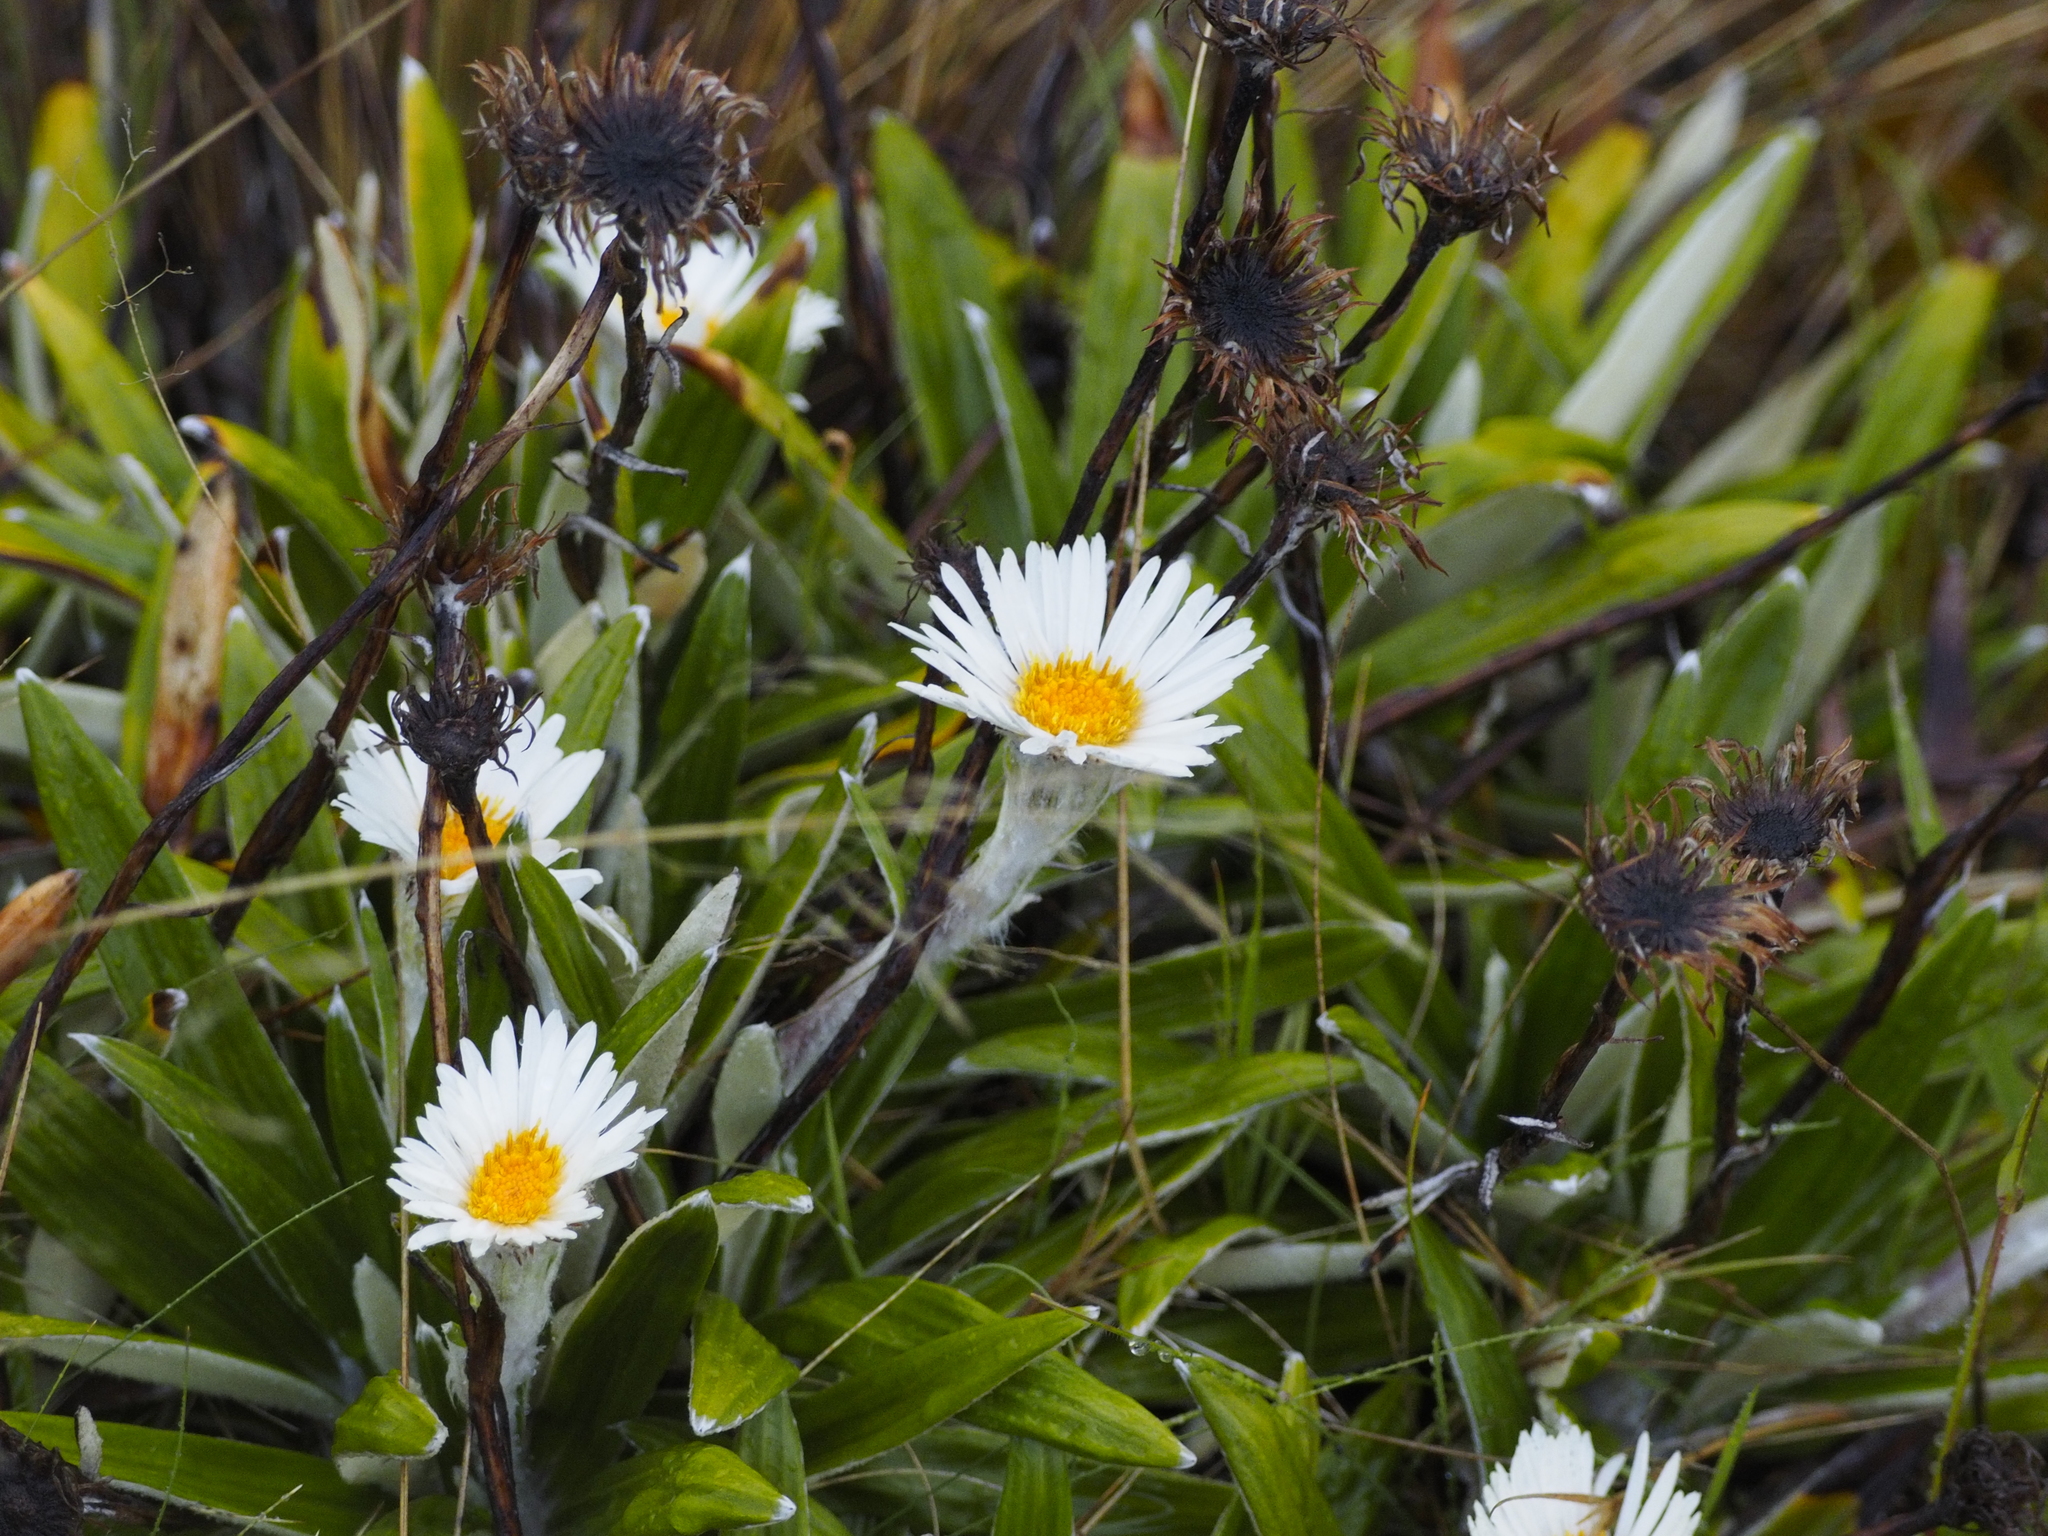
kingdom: Plantae
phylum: Tracheophyta
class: Magnoliopsida
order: Asterales
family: Asteraceae
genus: Celmisia
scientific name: Celmisia spectabilis
